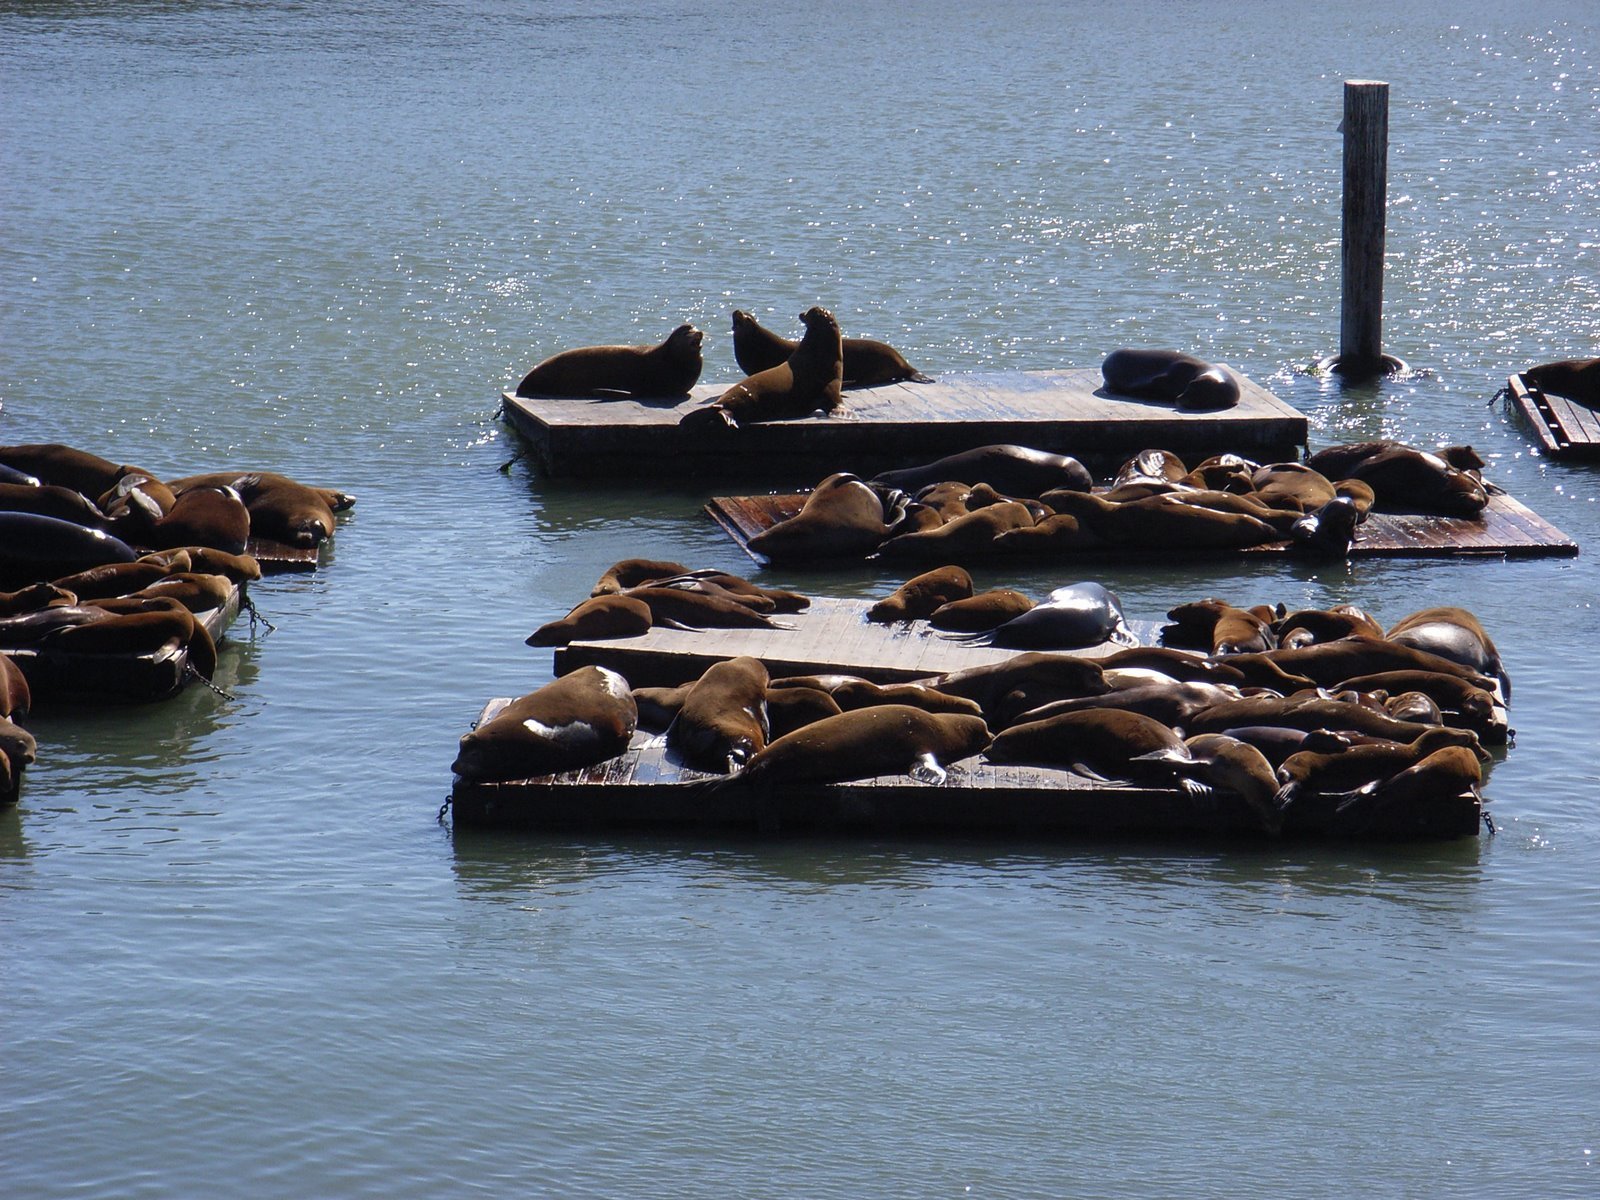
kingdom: Animalia
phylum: Chordata
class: Mammalia
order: Carnivora
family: Otariidae
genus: Zalophus
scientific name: Zalophus californianus
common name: California sea lion
